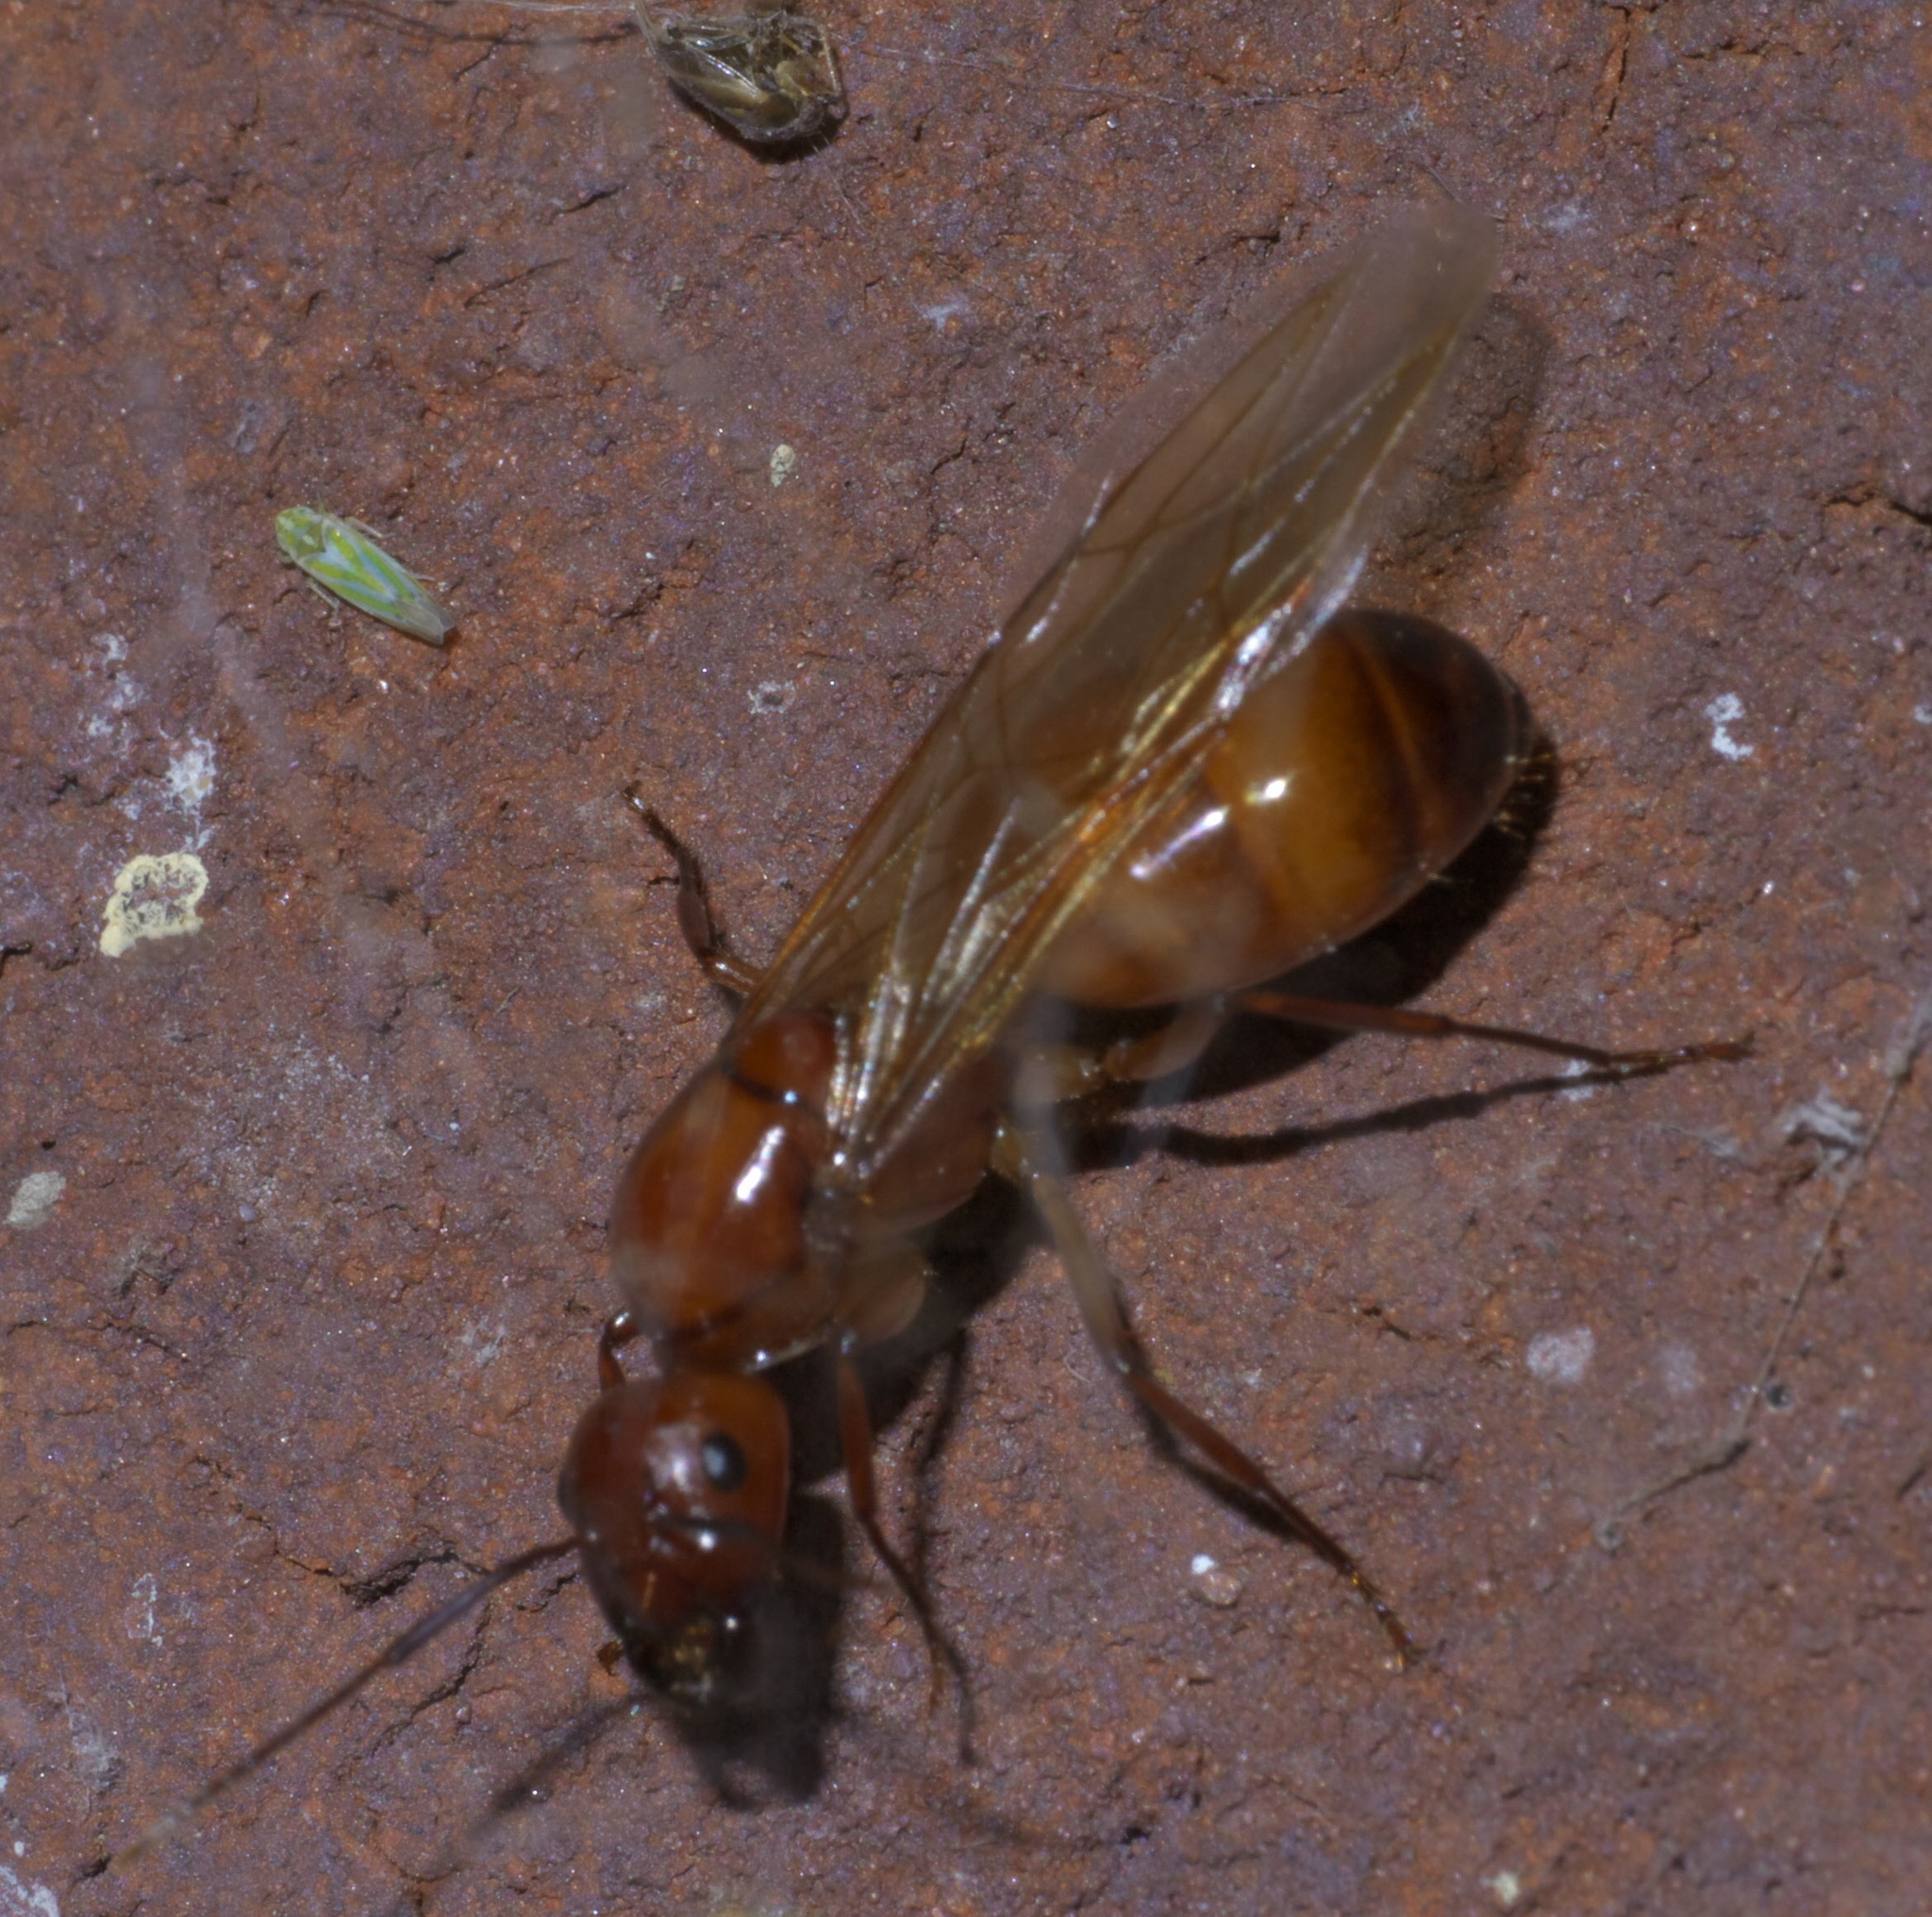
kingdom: Animalia
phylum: Arthropoda
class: Insecta
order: Hymenoptera
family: Formicidae
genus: Camponotus
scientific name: Camponotus castaneus
